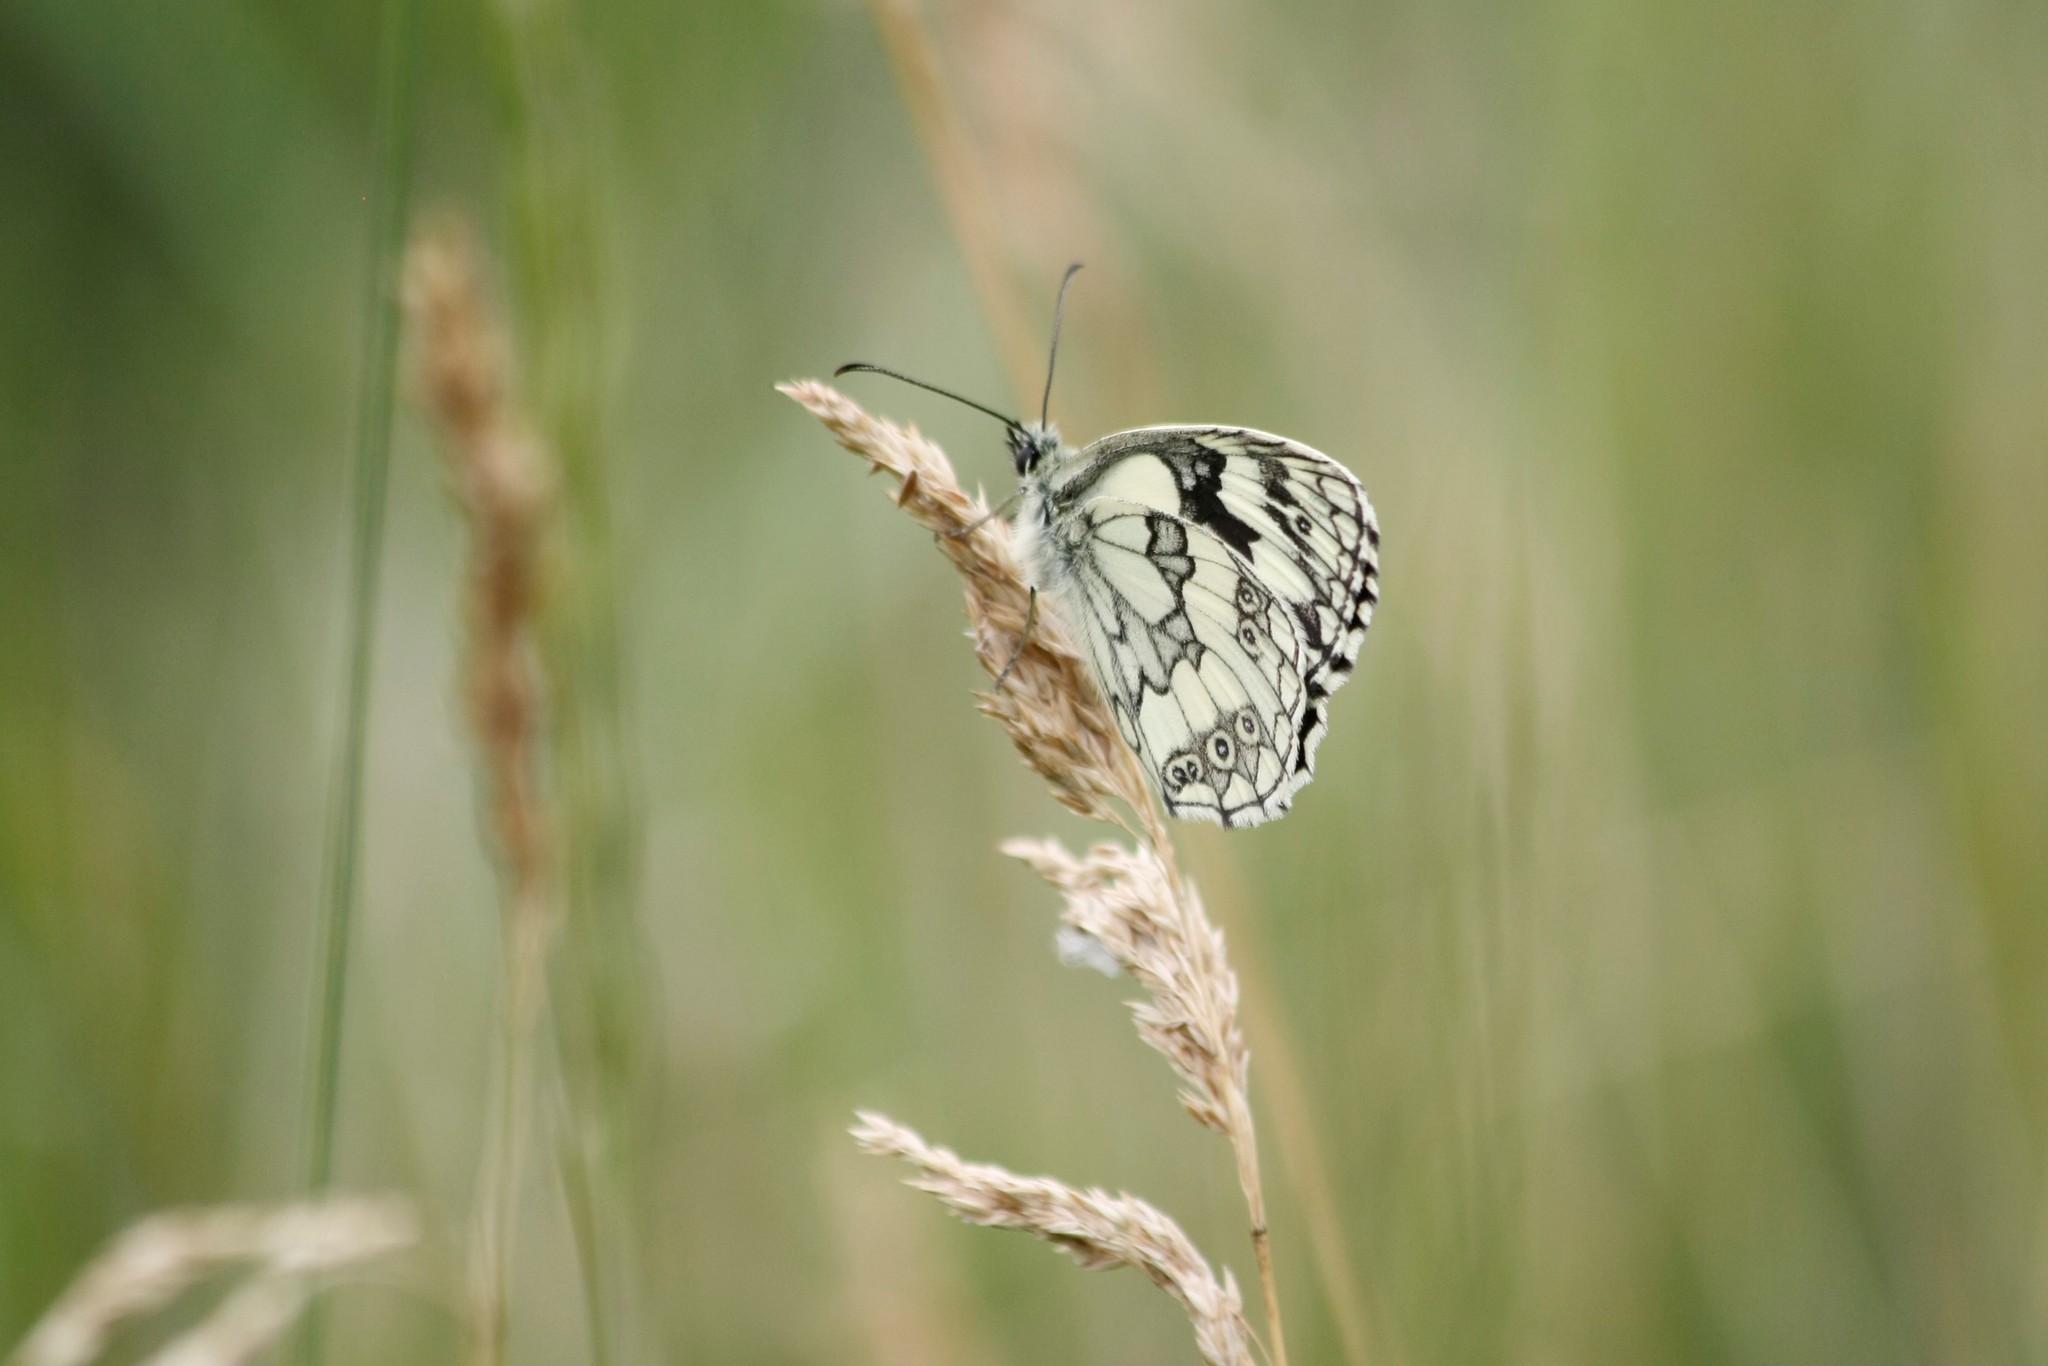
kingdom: Animalia
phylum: Arthropoda
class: Insecta
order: Lepidoptera
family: Nymphalidae
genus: Melanargia
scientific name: Melanargia galathea
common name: Marbled white
